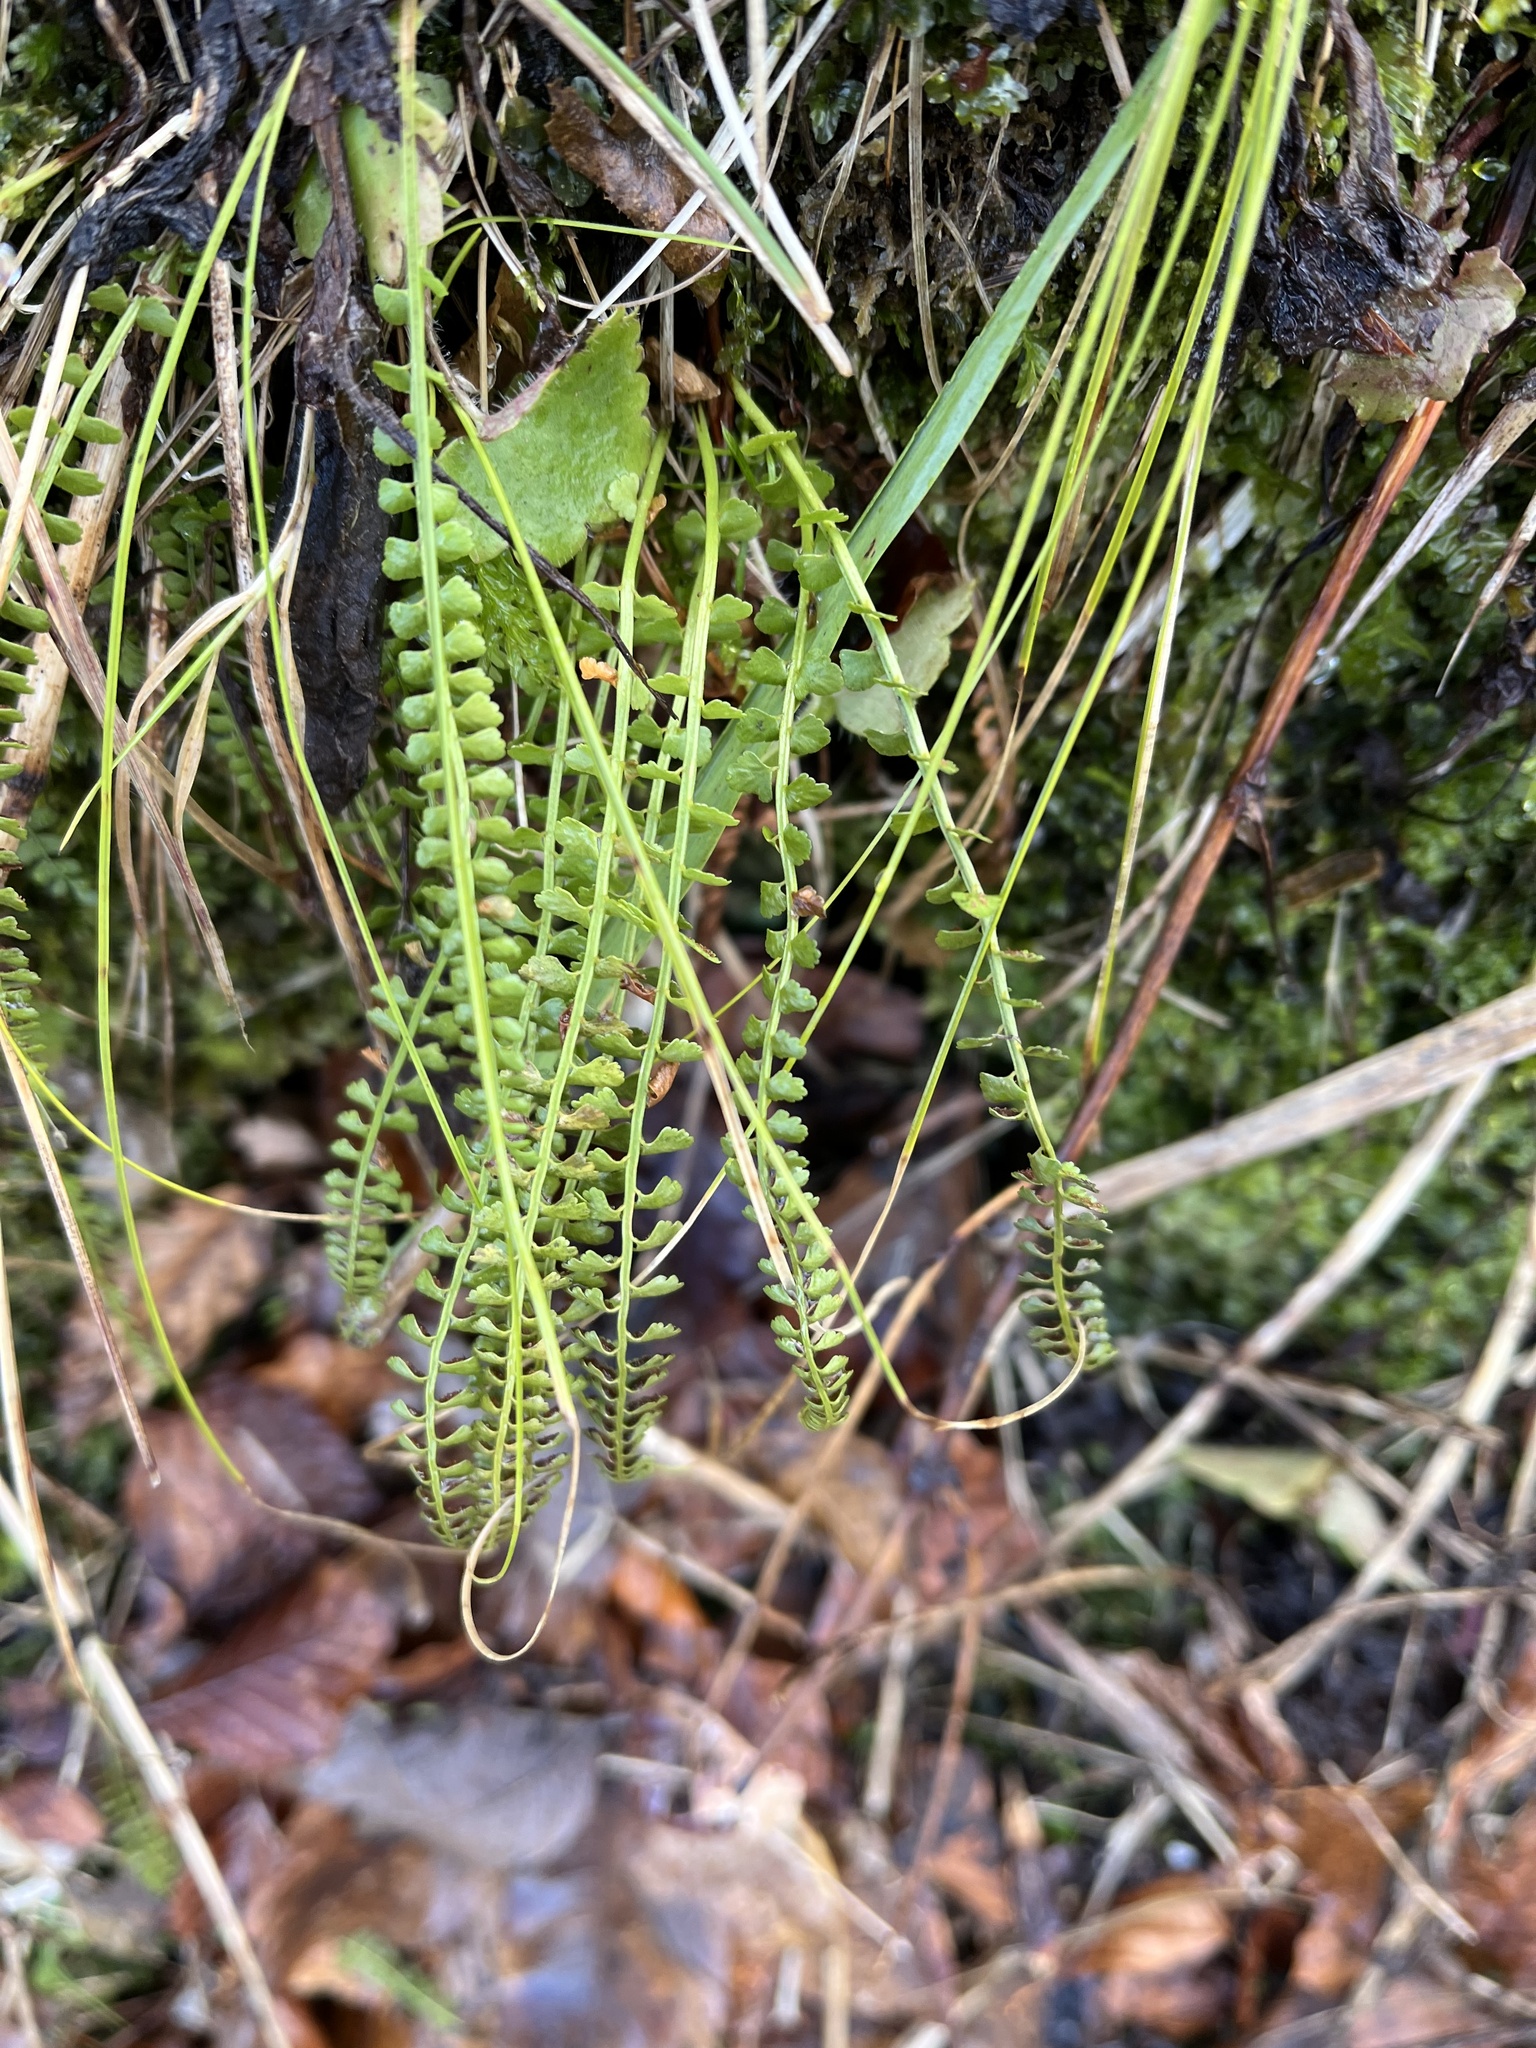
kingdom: Plantae
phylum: Tracheophyta
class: Polypodiopsida
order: Polypodiales
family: Aspleniaceae
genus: Asplenium
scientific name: Asplenium viride
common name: Green spleenwort
